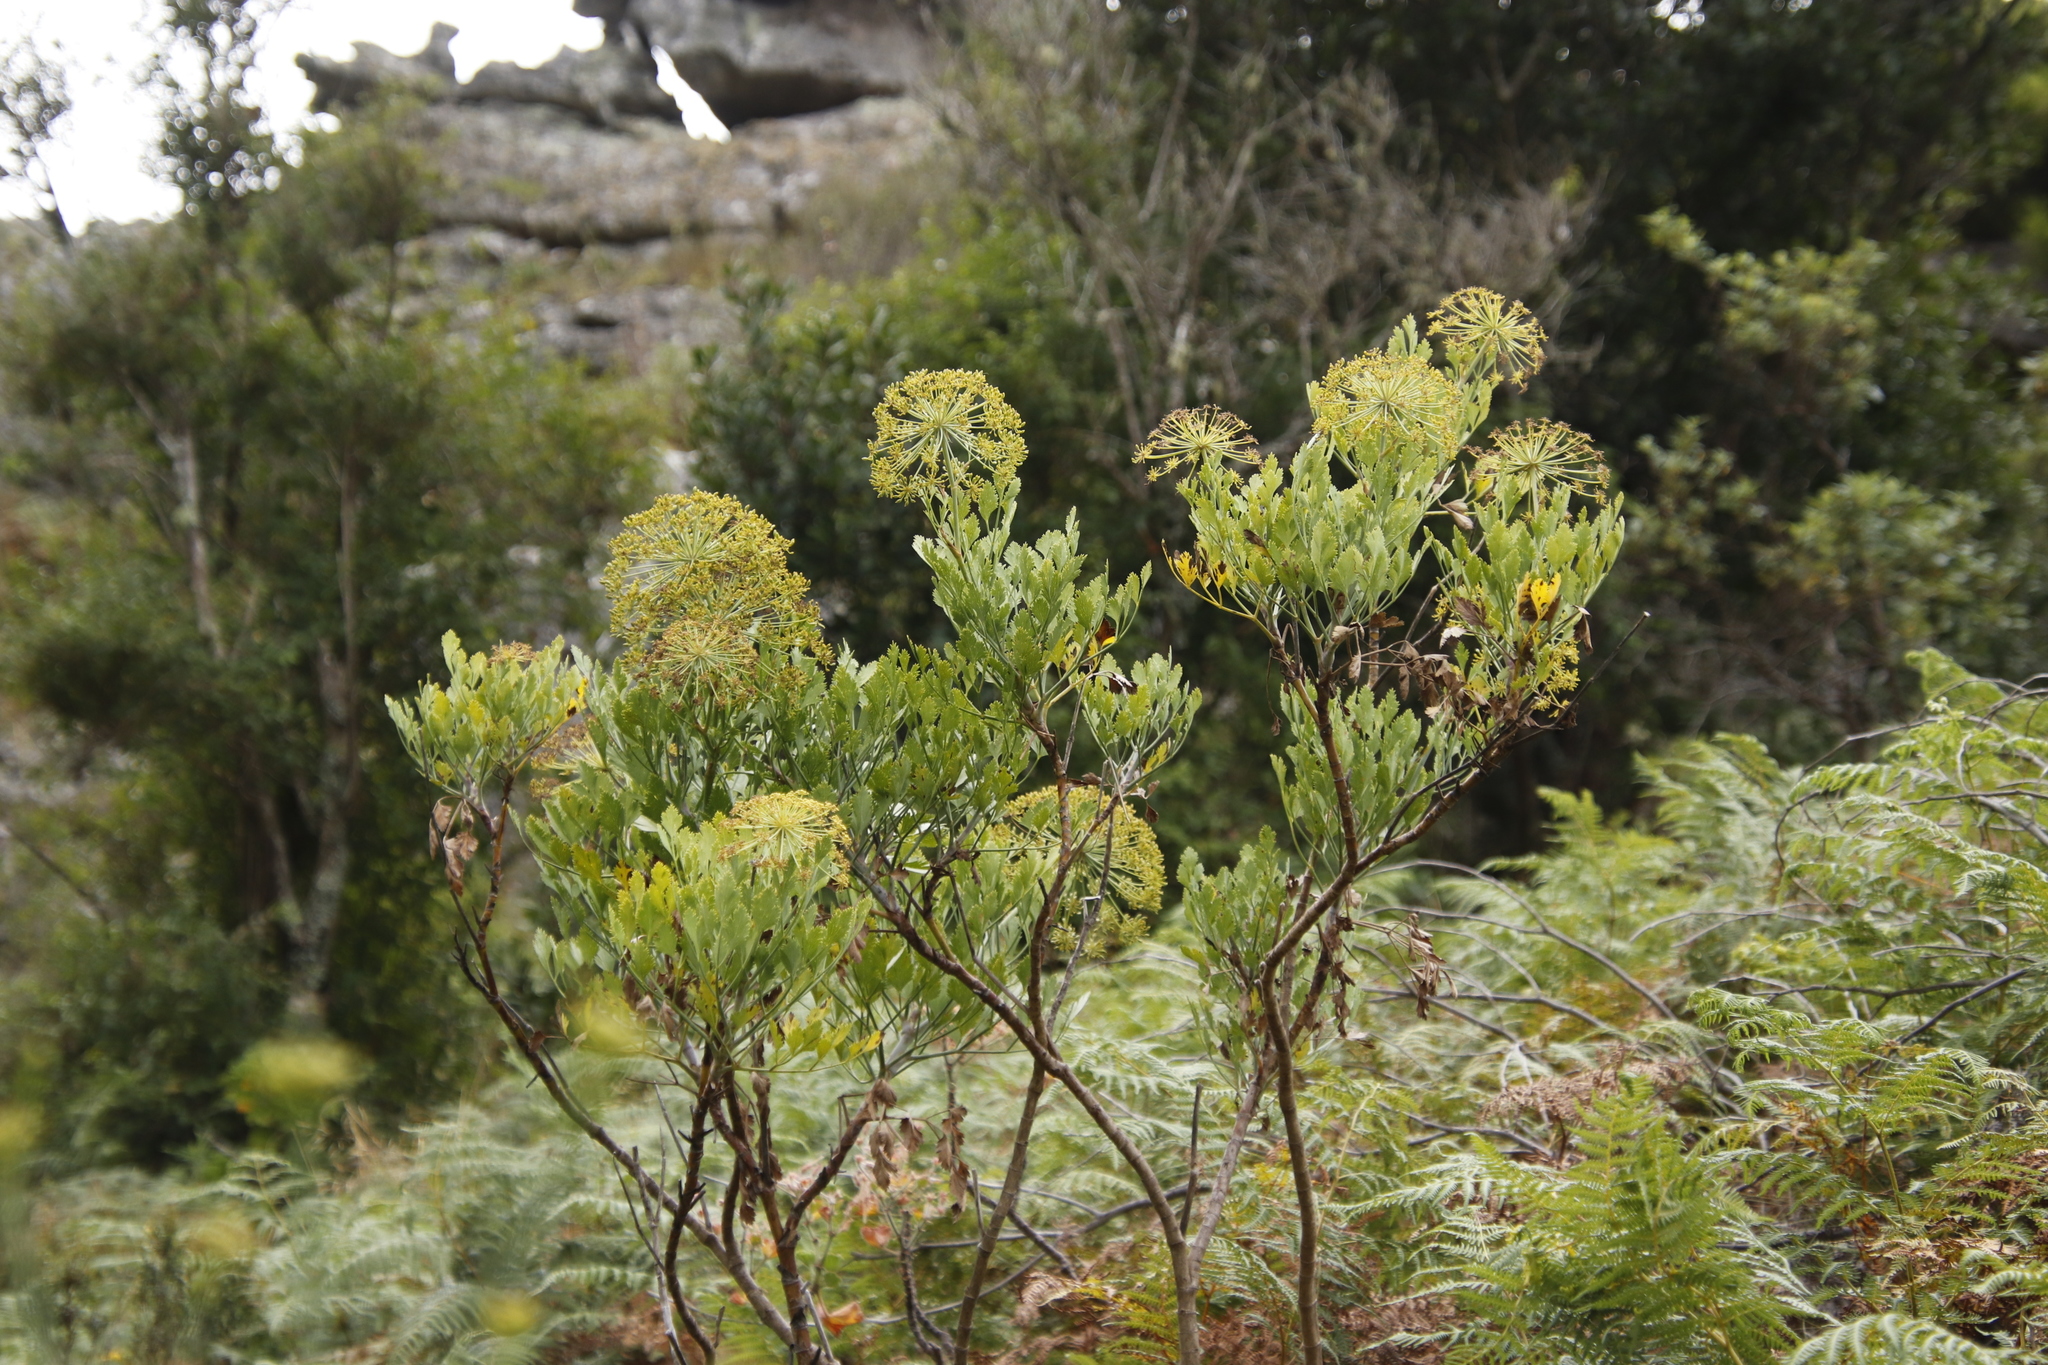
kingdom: Plantae
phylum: Tracheophyta
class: Magnoliopsida
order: Apiales
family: Apiaceae
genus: Notobubon
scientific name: Notobubon galbanum
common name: Blisterbush
